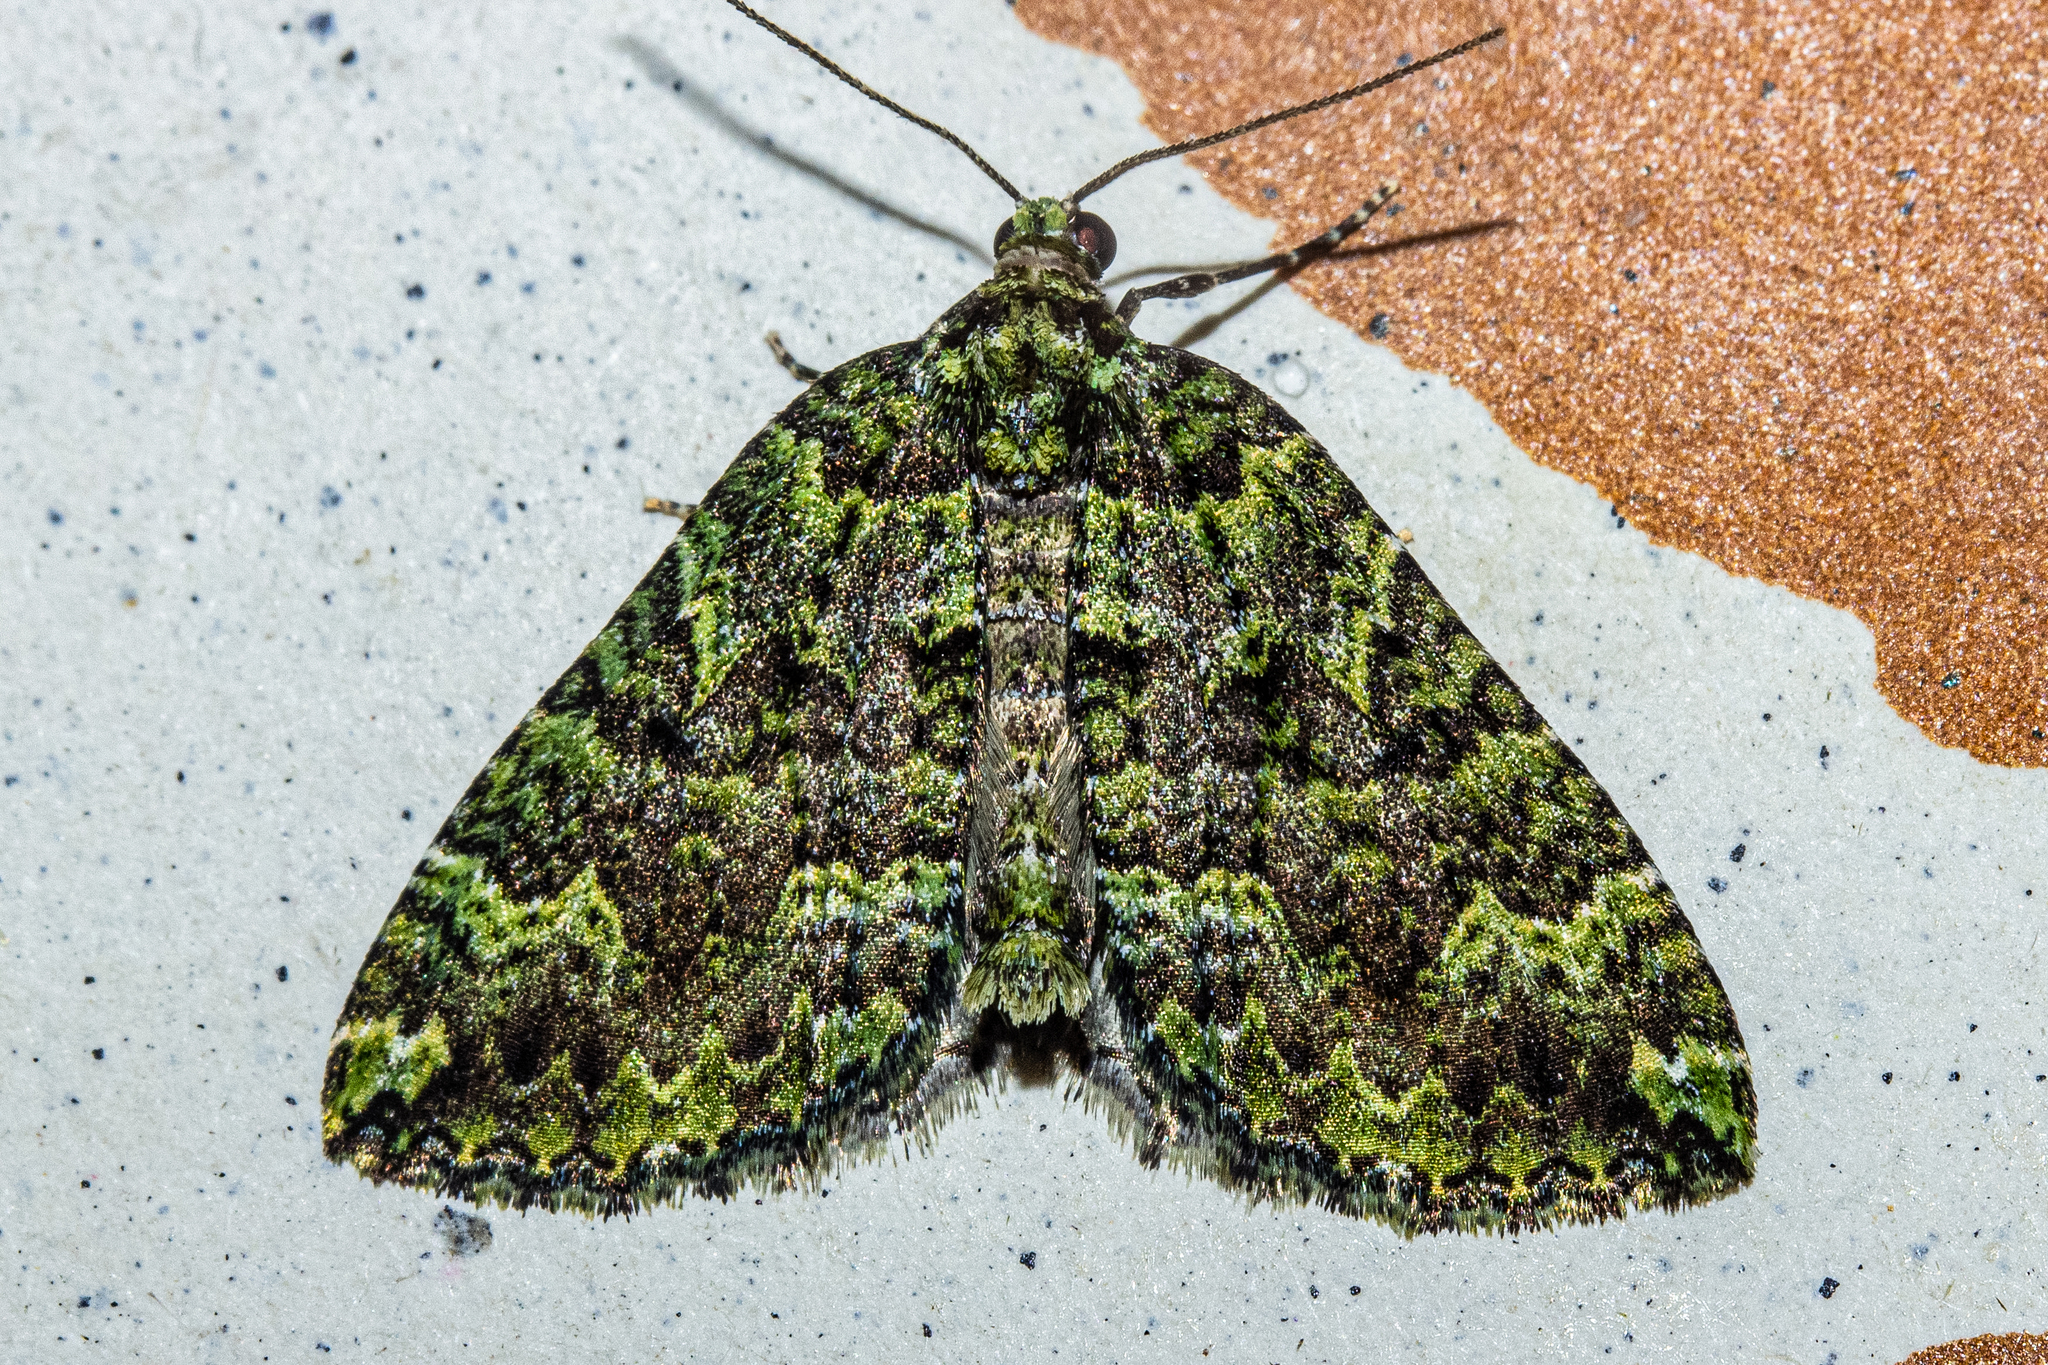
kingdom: Animalia
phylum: Arthropoda
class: Insecta
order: Lepidoptera
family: Geometridae
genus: Austrocidaria
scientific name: Austrocidaria callichlora
